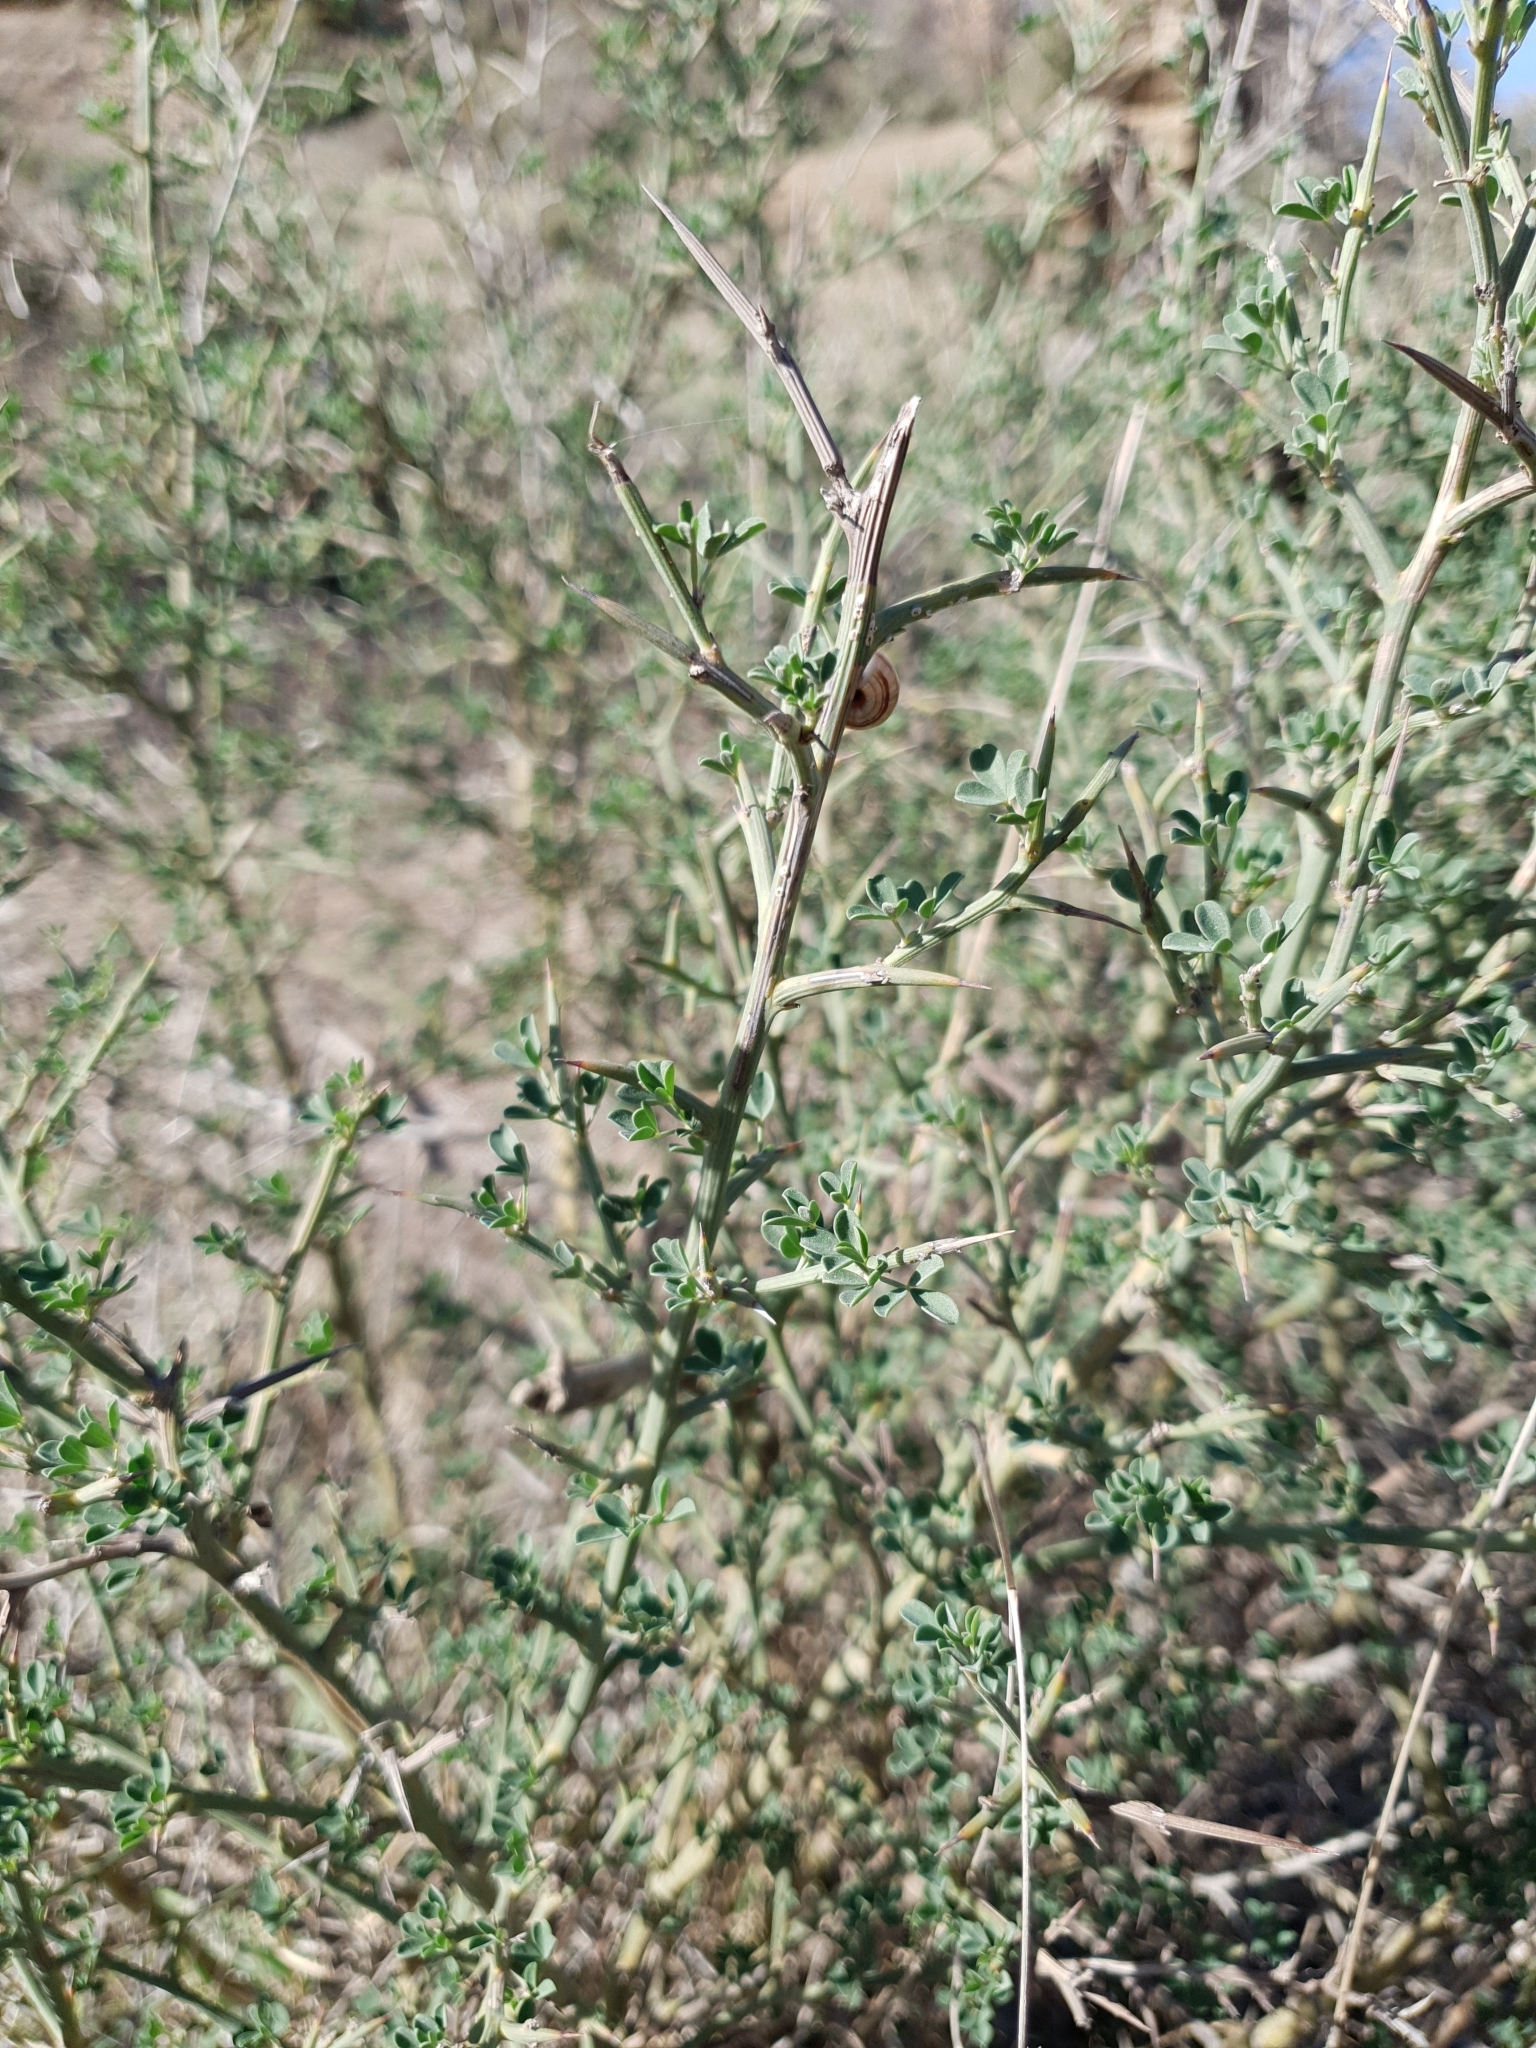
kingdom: Plantae
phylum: Tracheophyta
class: Magnoliopsida
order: Fabales
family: Fabaceae
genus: Calicotome
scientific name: Calicotome spinosa
